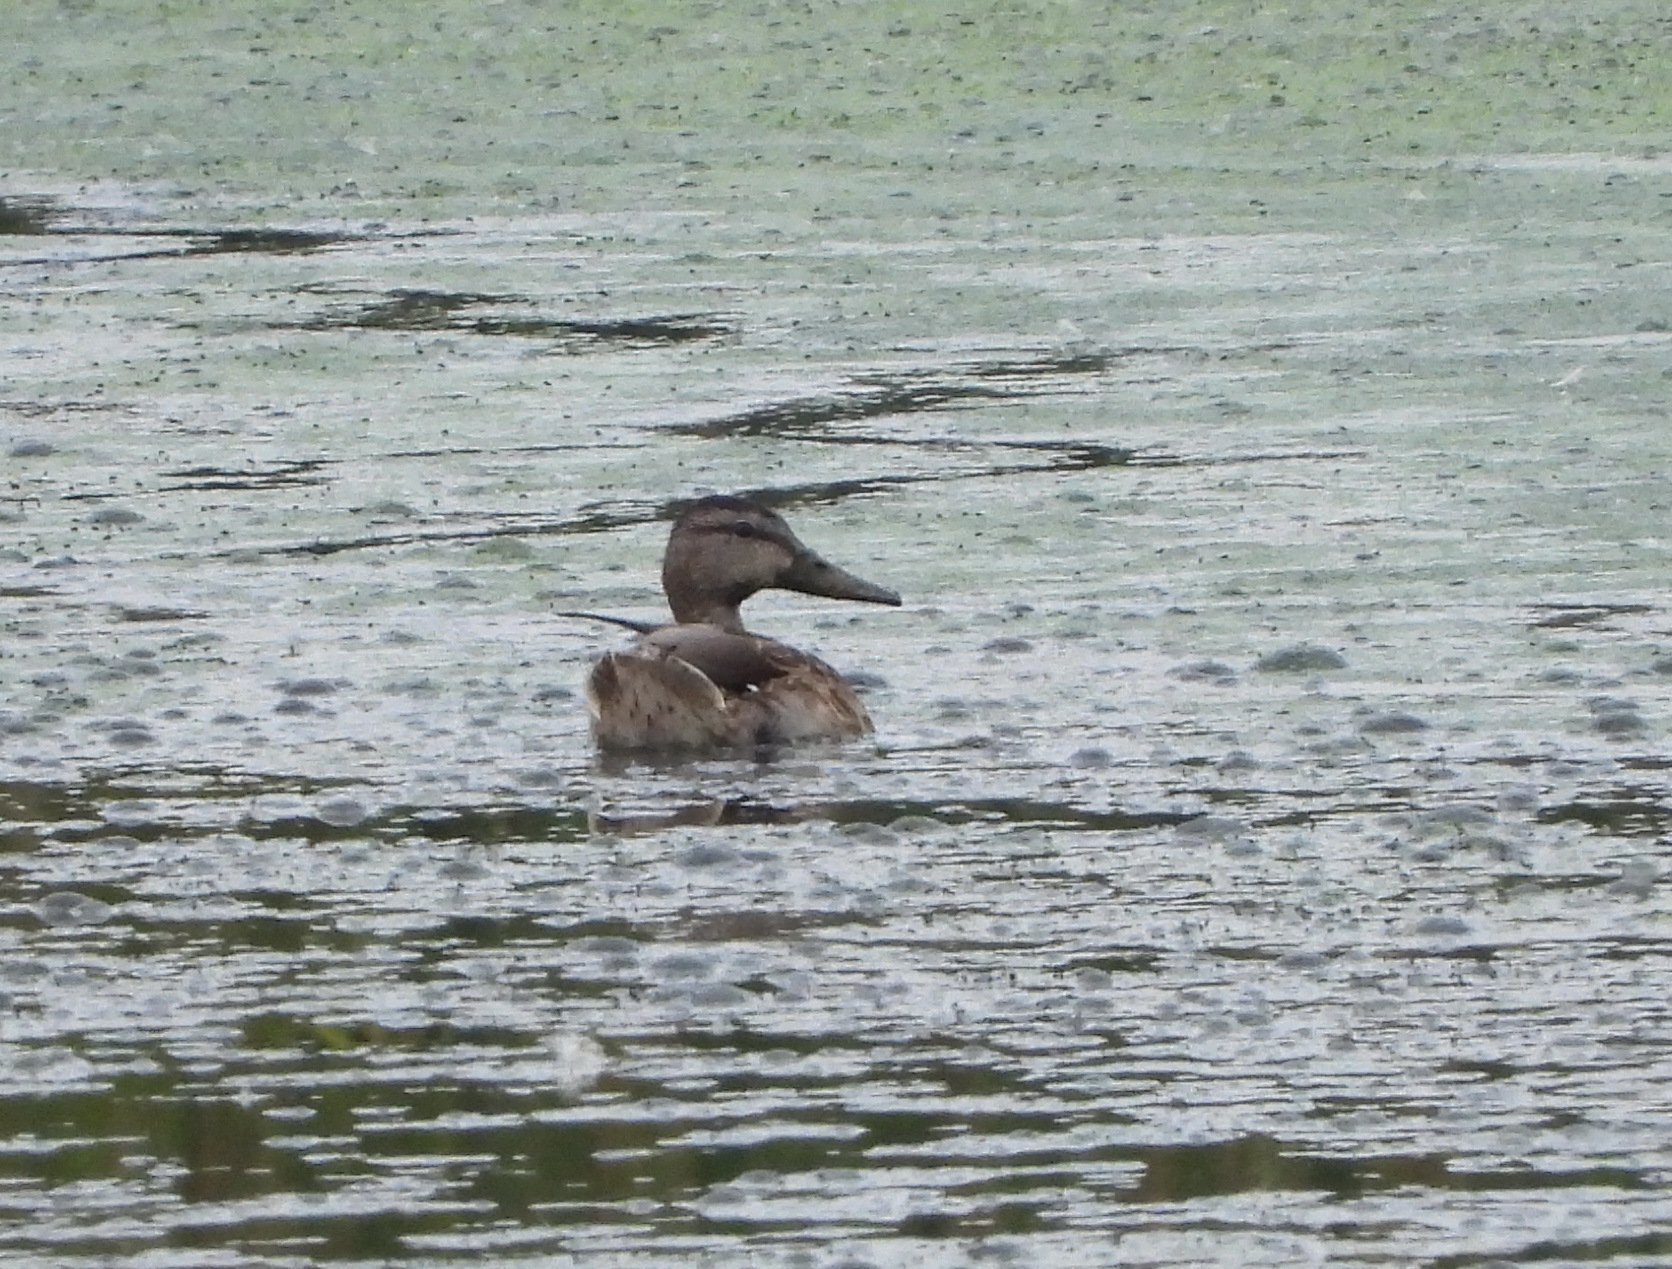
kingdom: Animalia
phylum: Chordata
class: Aves
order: Anseriformes
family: Anatidae
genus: Anas
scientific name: Anas platyrhynchos
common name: Mallard
